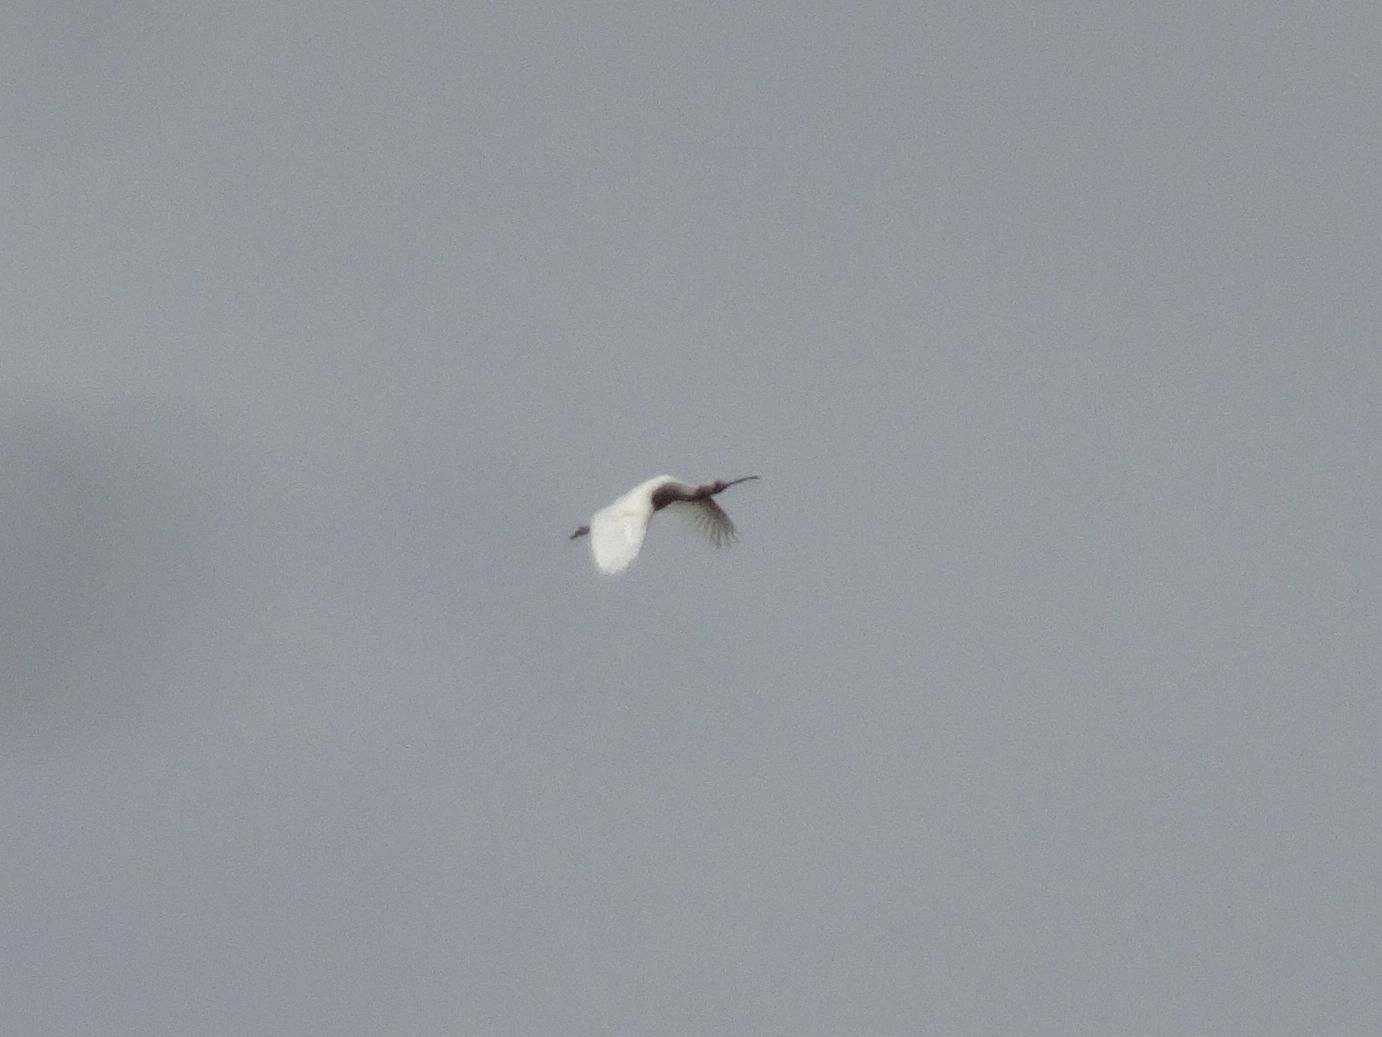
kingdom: Animalia
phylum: Chordata
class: Aves
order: Pelecaniformes
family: Threskiornithidae
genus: Platalea
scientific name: Platalea alba
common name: African spoonbill
